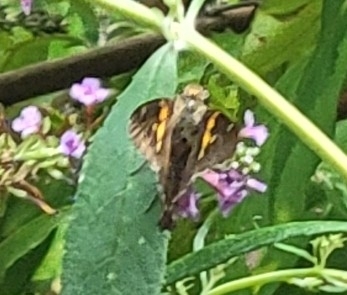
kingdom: Animalia
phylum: Arthropoda
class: Insecta
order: Lepidoptera
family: Hesperiidae
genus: Epargyreus
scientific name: Epargyreus clarus
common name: Silver-spotted skipper
